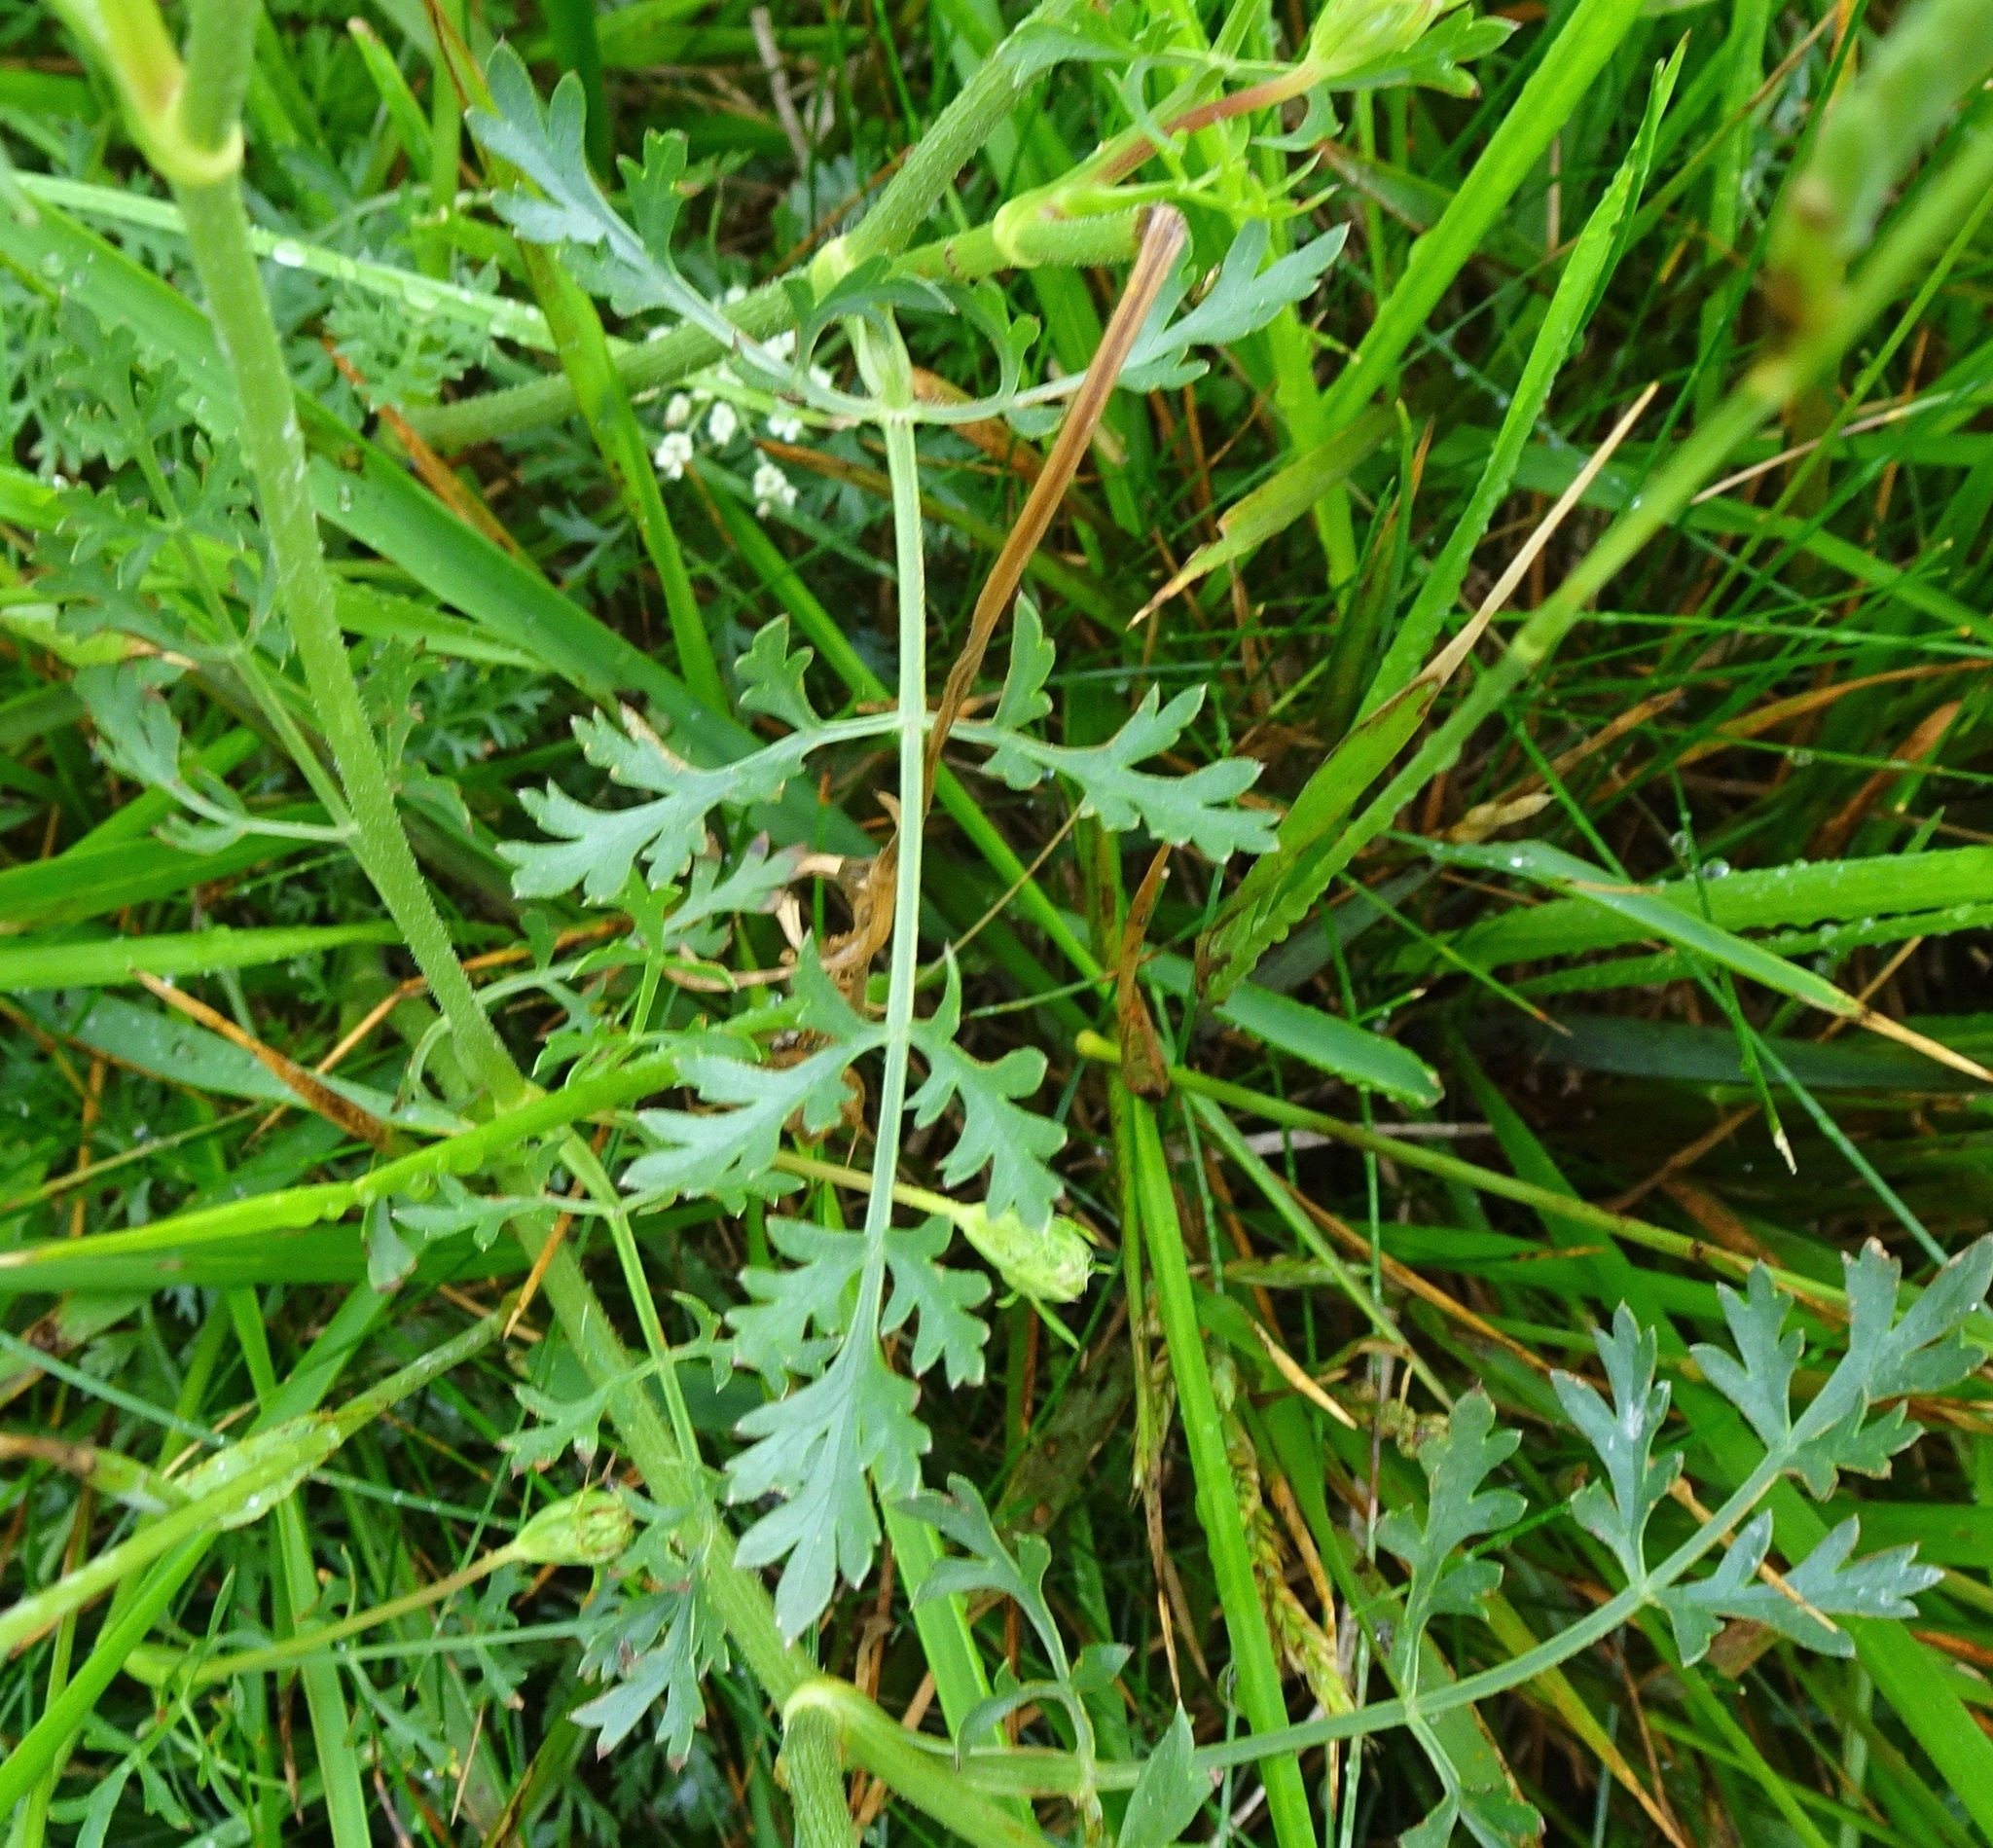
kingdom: Plantae
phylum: Tracheophyta
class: Magnoliopsida
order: Apiales
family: Apiaceae
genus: Daucus
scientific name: Daucus carota
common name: Wild carrot
